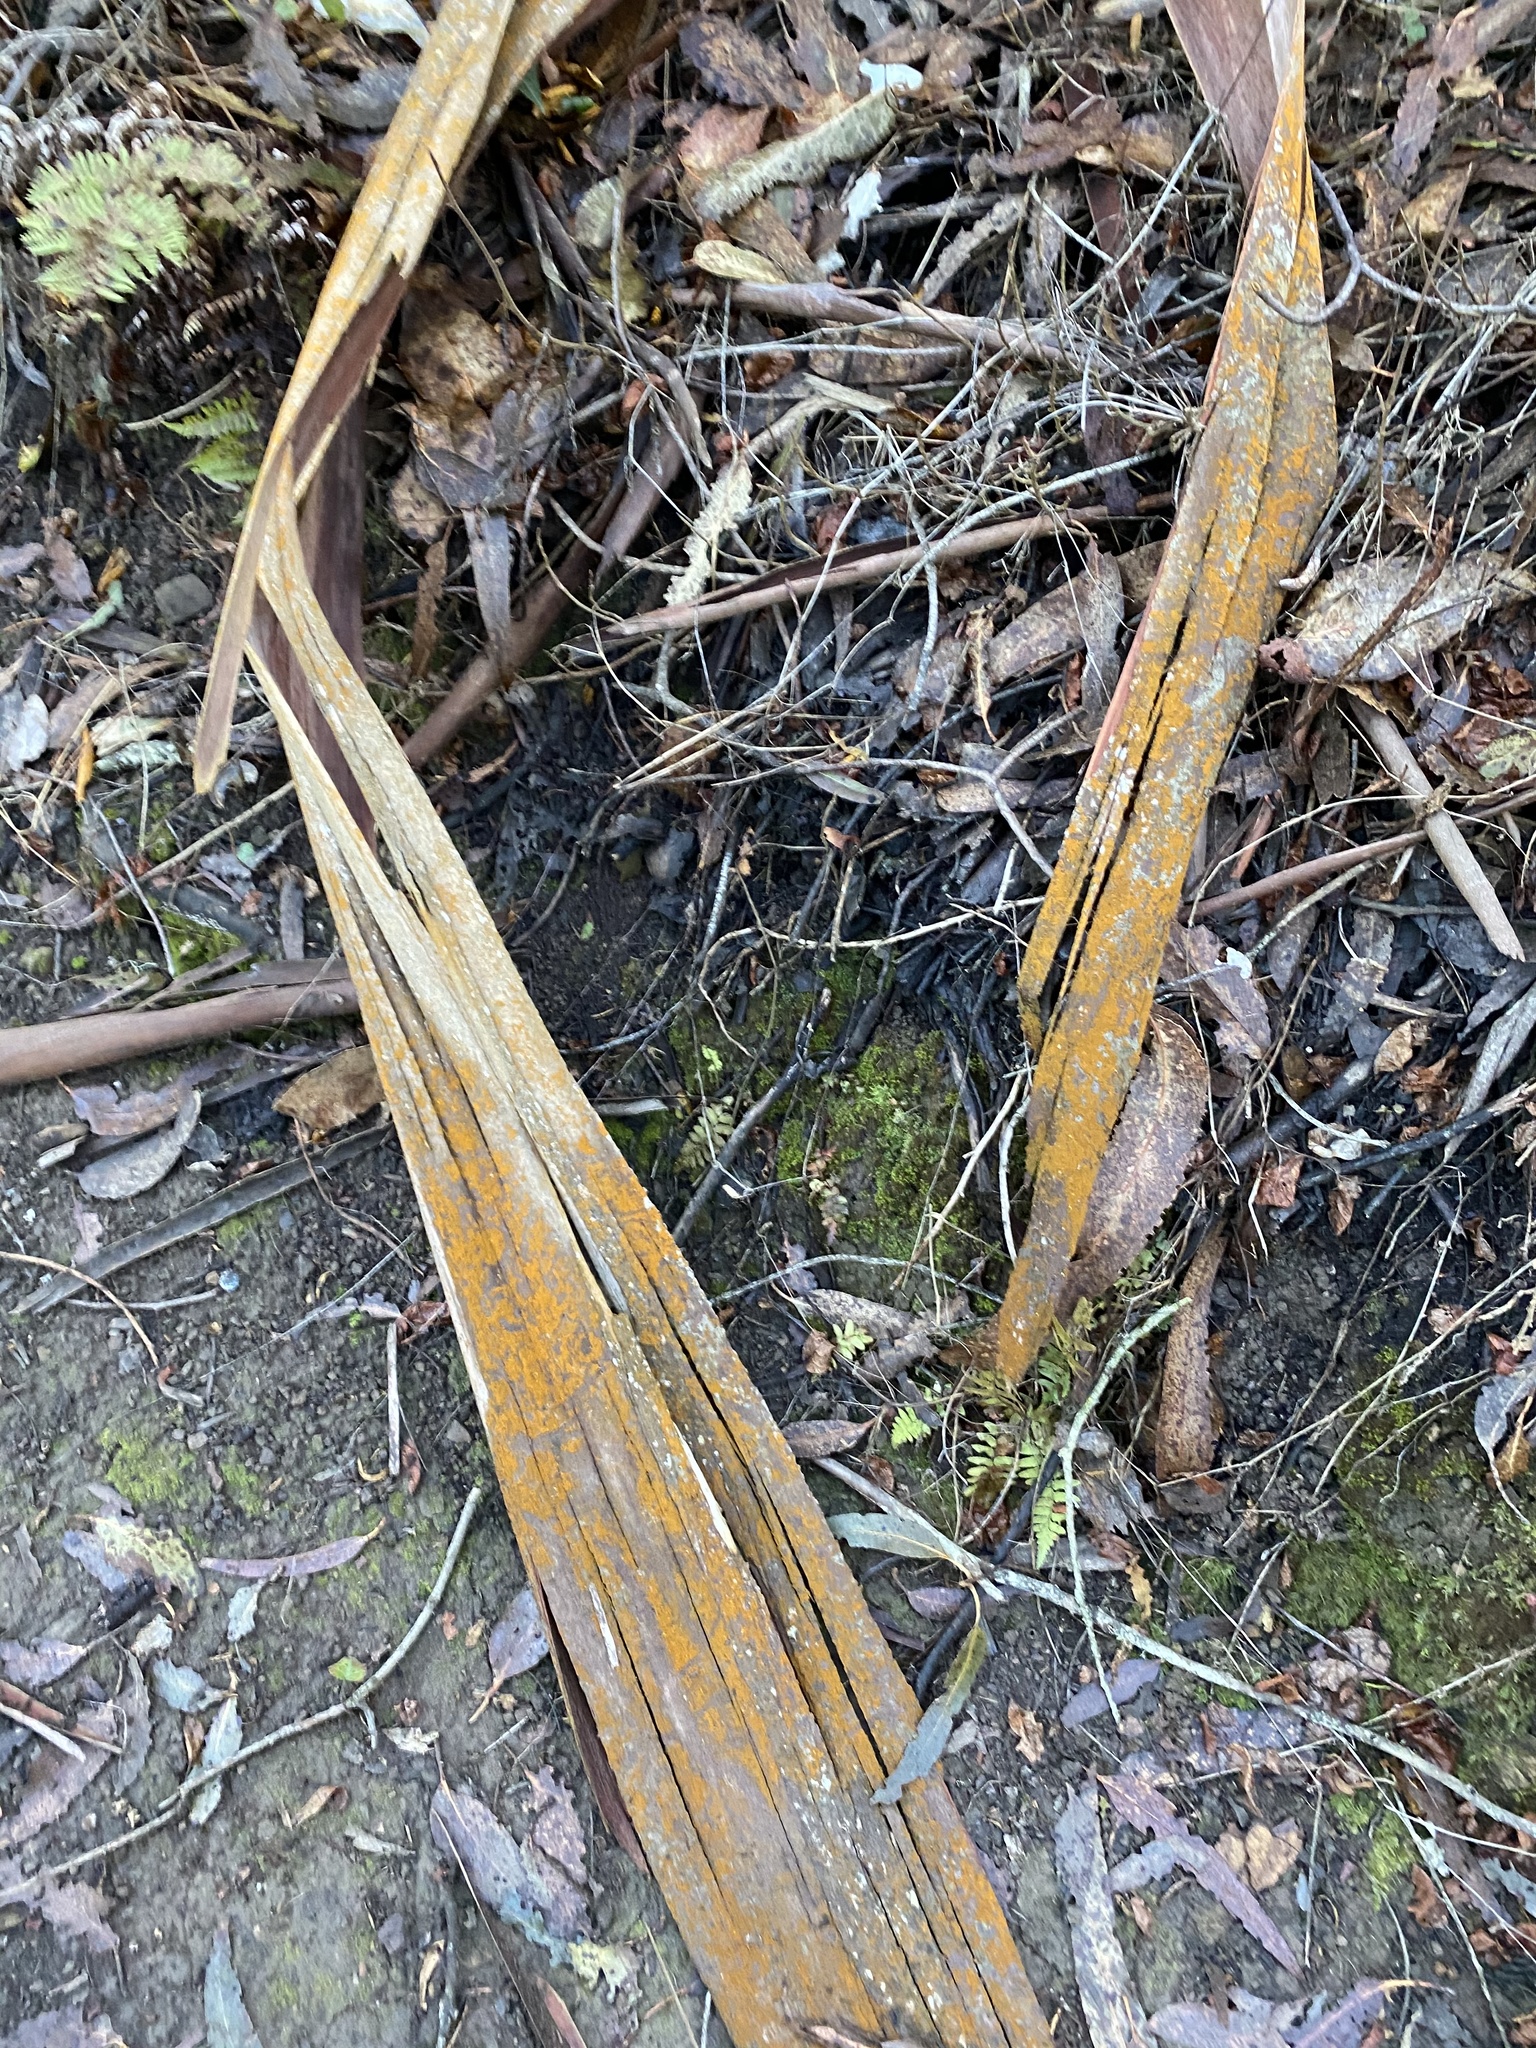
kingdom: Fungi
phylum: Ascomycota
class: Candelariomycetes
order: Candelariales
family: Candelariaceae
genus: Candelaria
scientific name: Candelaria concolor
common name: Candleflame lichen
